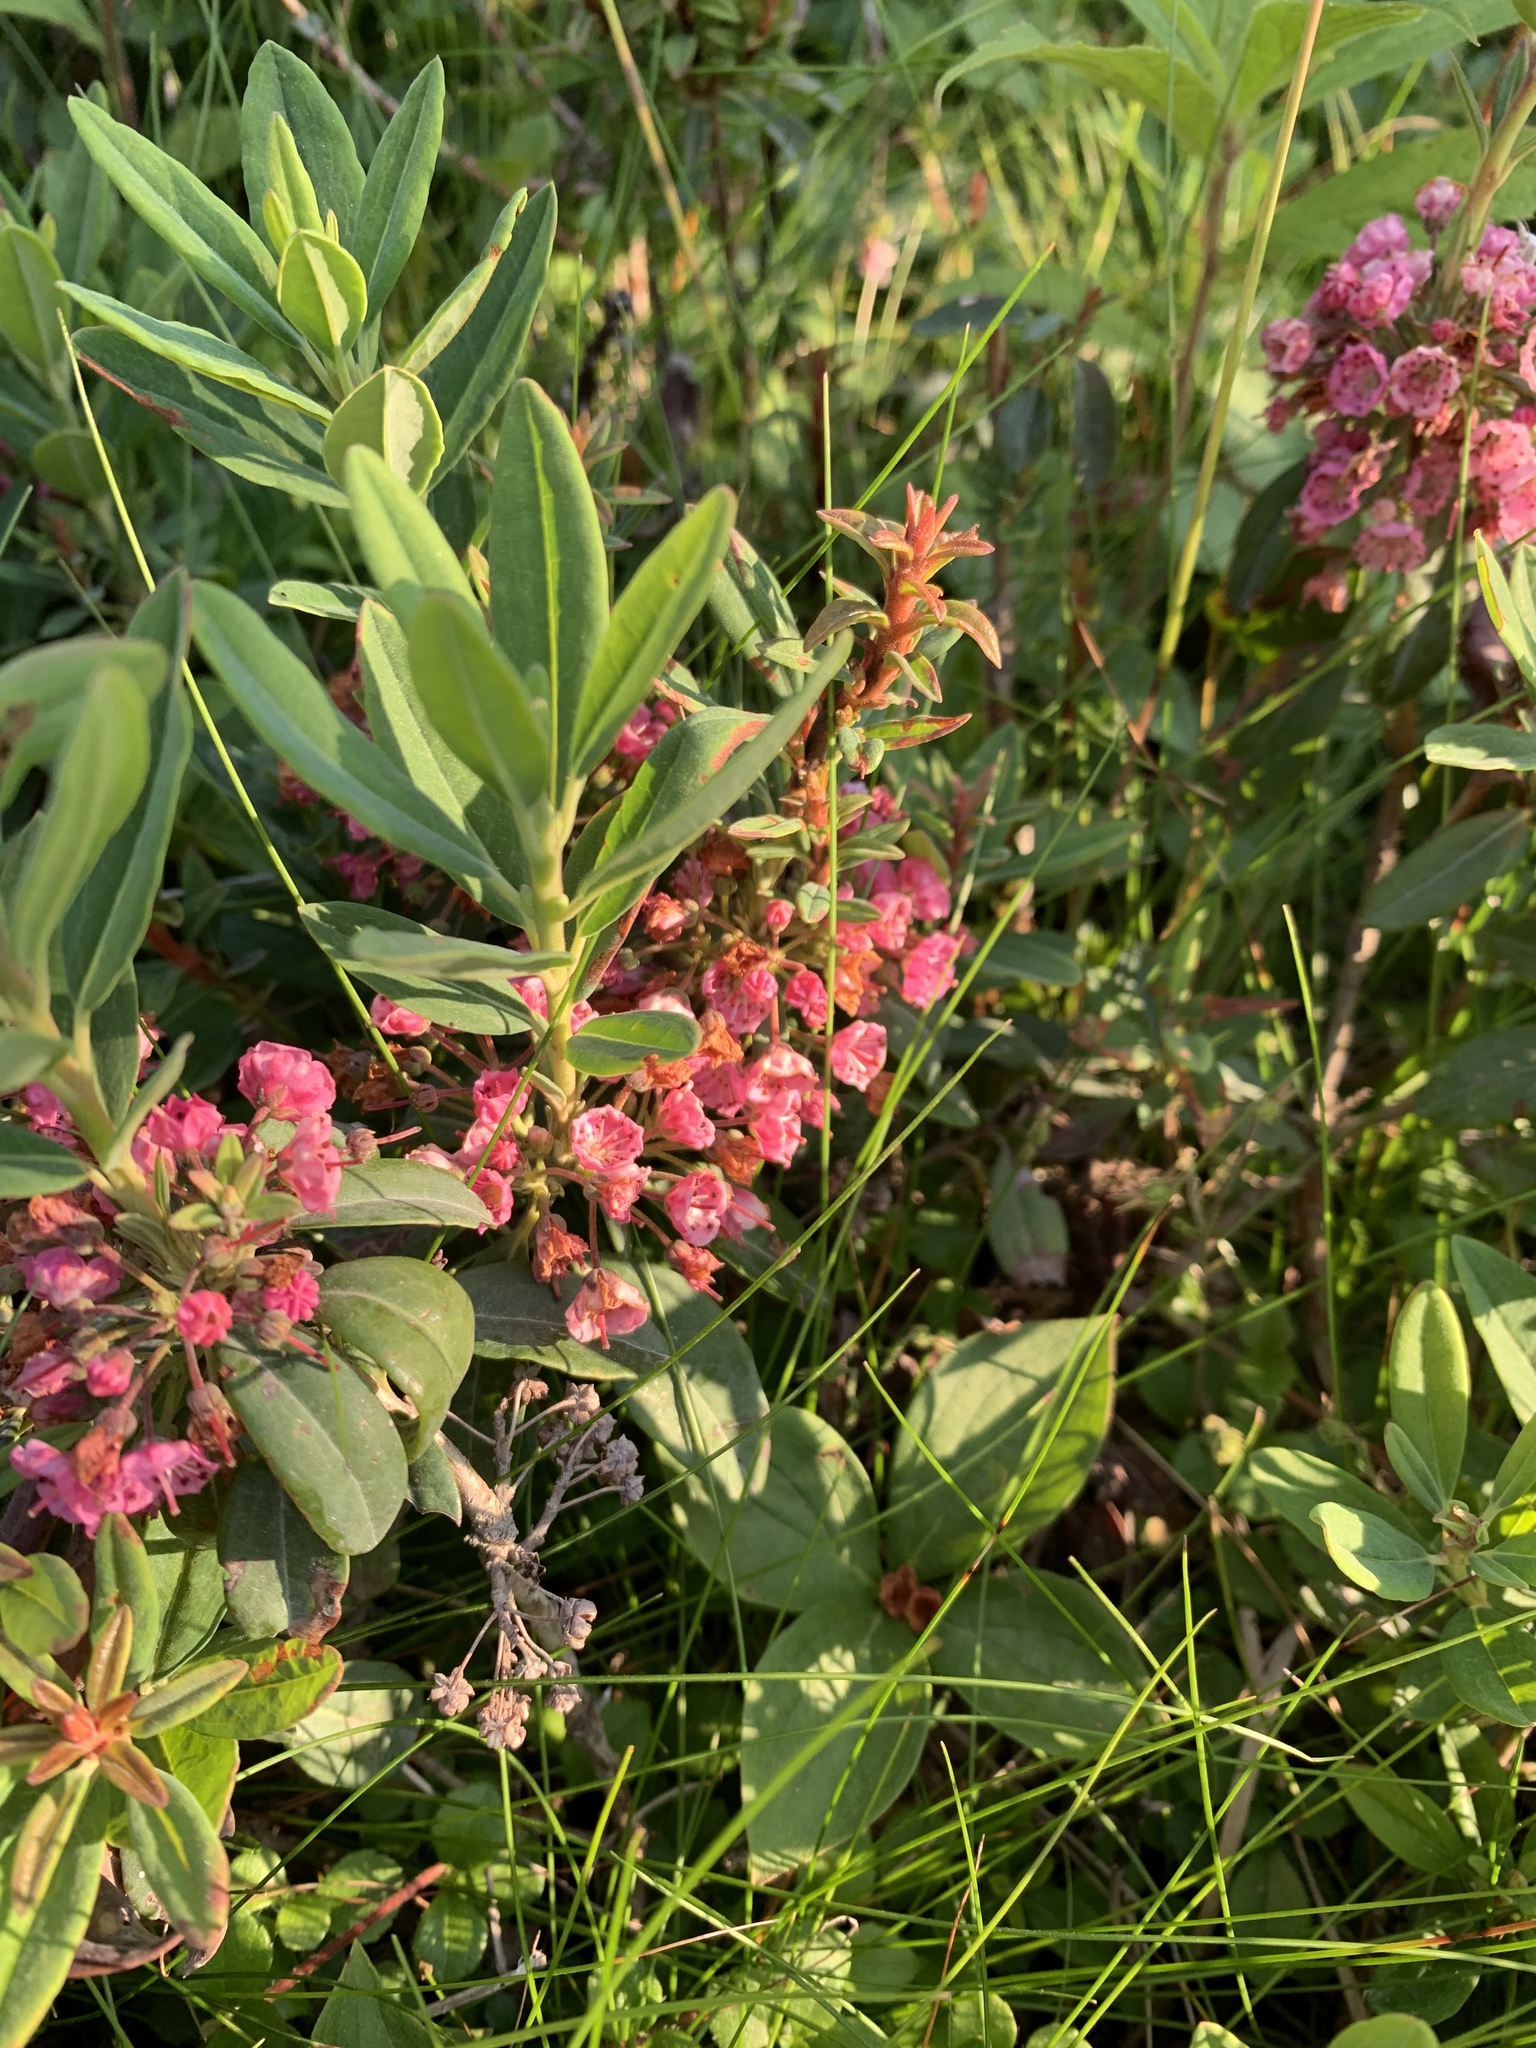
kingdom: Plantae
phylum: Tracheophyta
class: Magnoliopsida
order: Ericales
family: Ericaceae
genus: Kalmia
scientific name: Kalmia angustifolia
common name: Sheep-laurel
